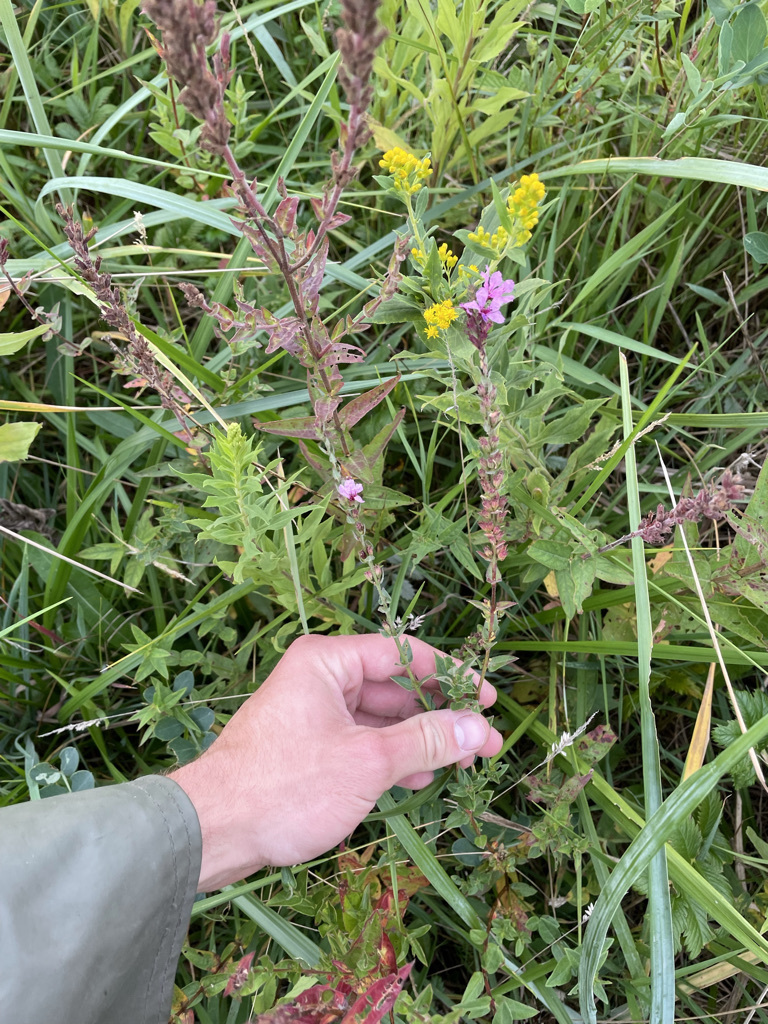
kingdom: Plantae
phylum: Tracheophyta
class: Magnoliopsida
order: Myrtales
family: Lythraceae
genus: Lythrum
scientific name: Lythrum salicaria
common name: Purple loosestrife
